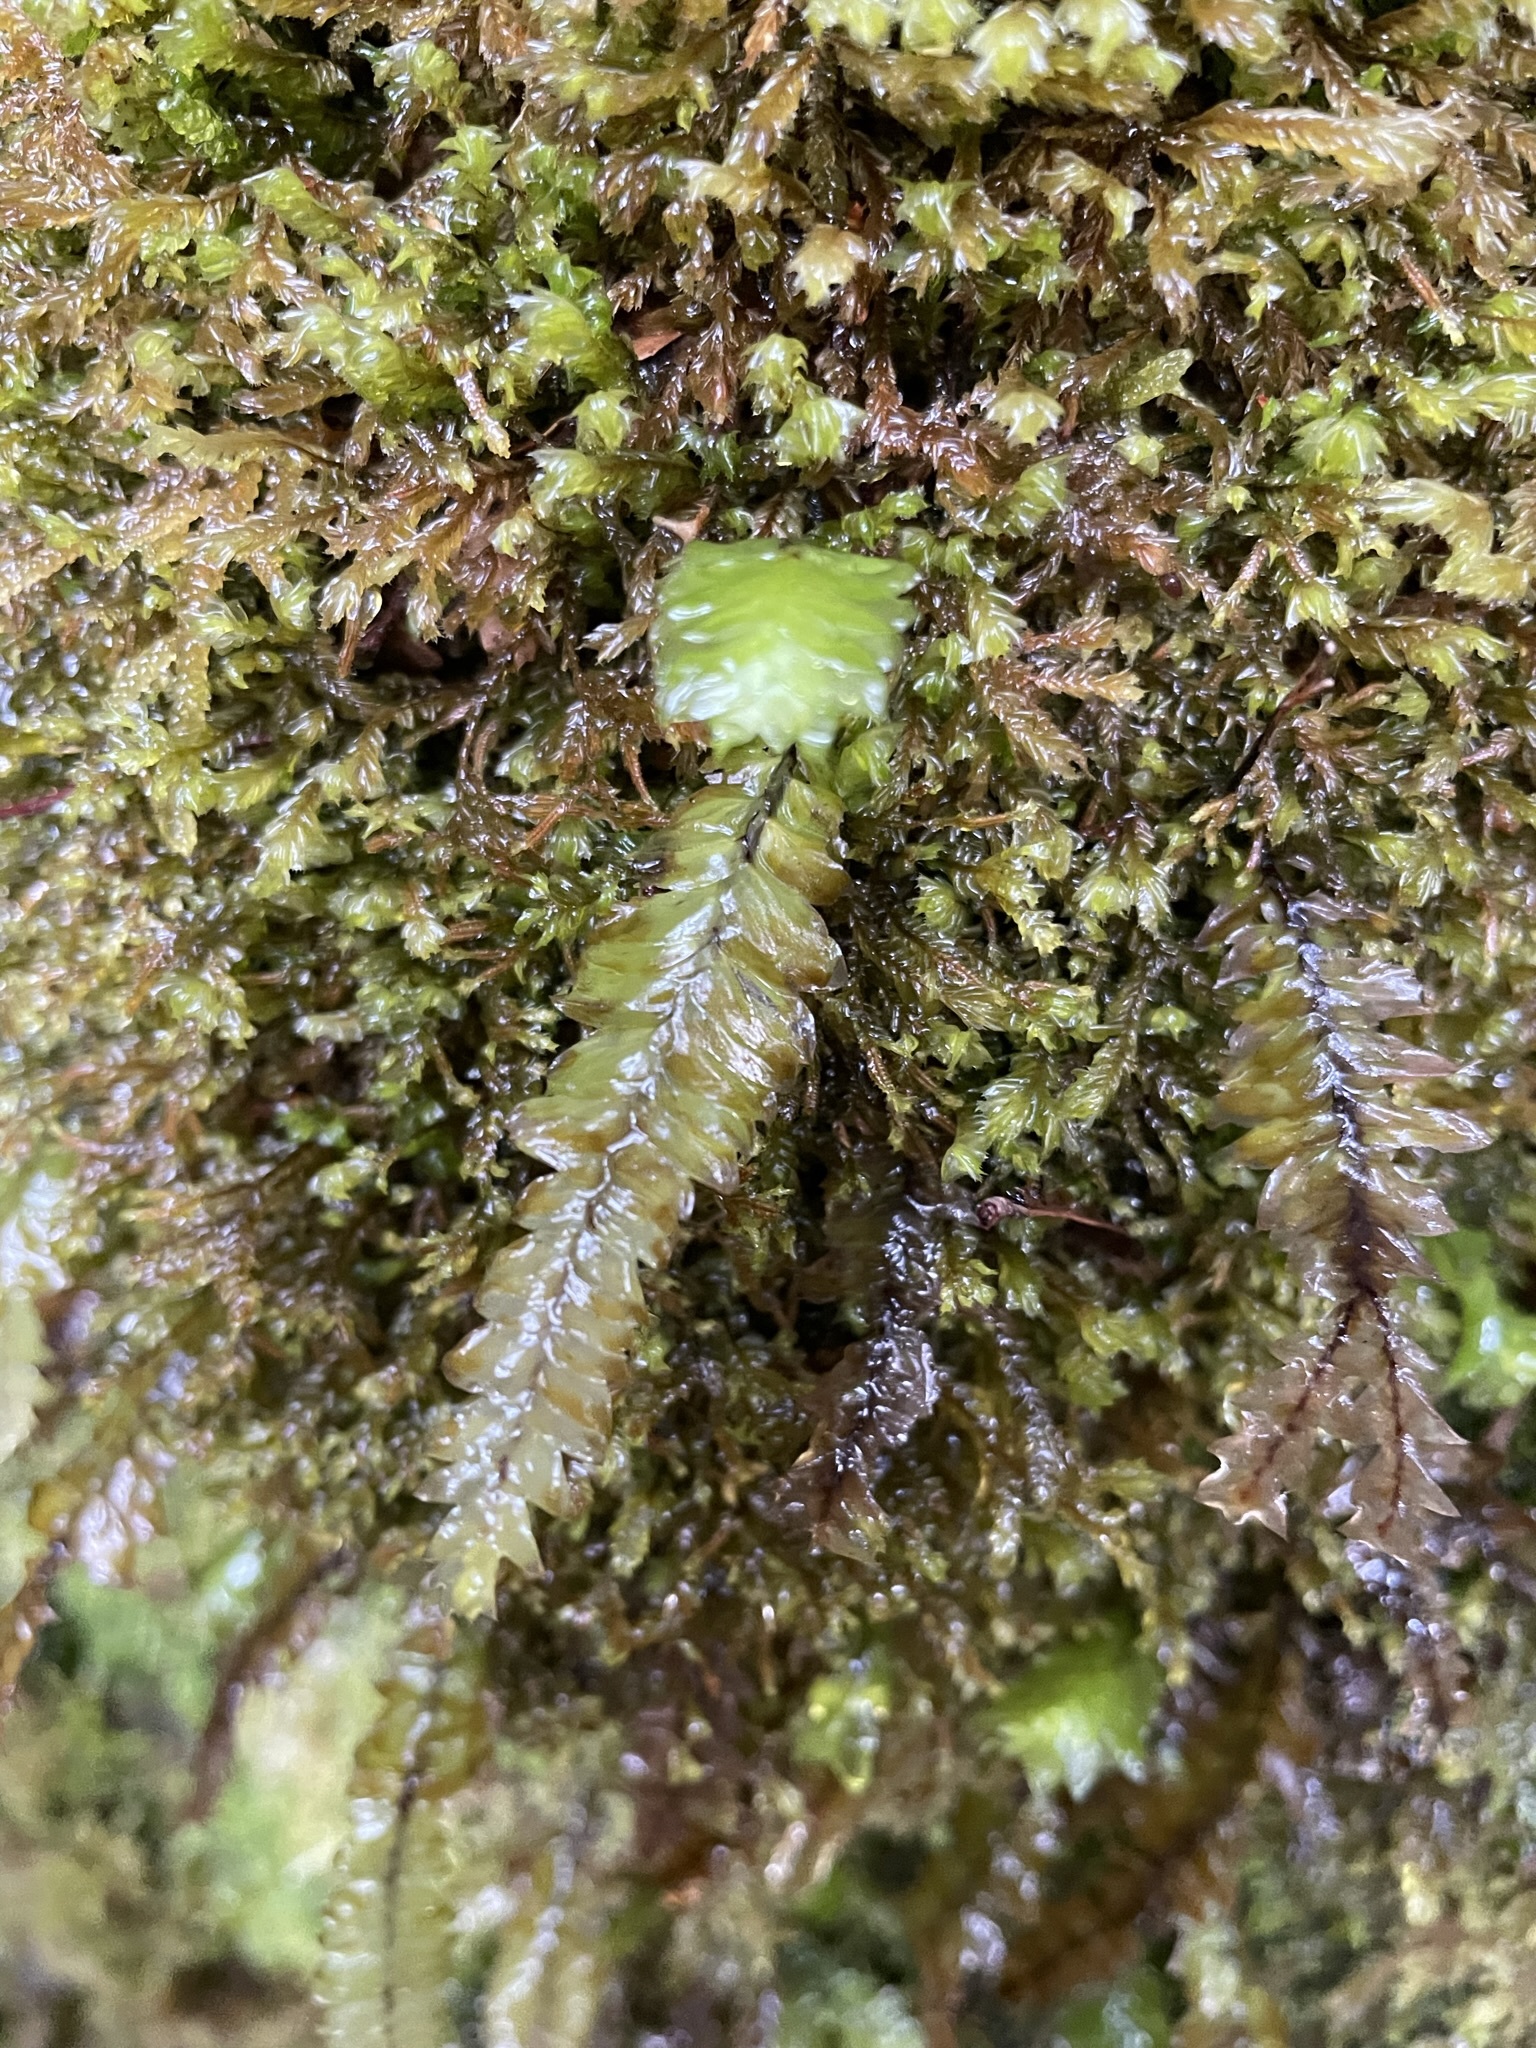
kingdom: Plantae
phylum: Bryophyta
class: Bryopsida
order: Hypopterygiales
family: Hypopterygiaceae
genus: Cyathophorum
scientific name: Cyathophorum bulbosum
